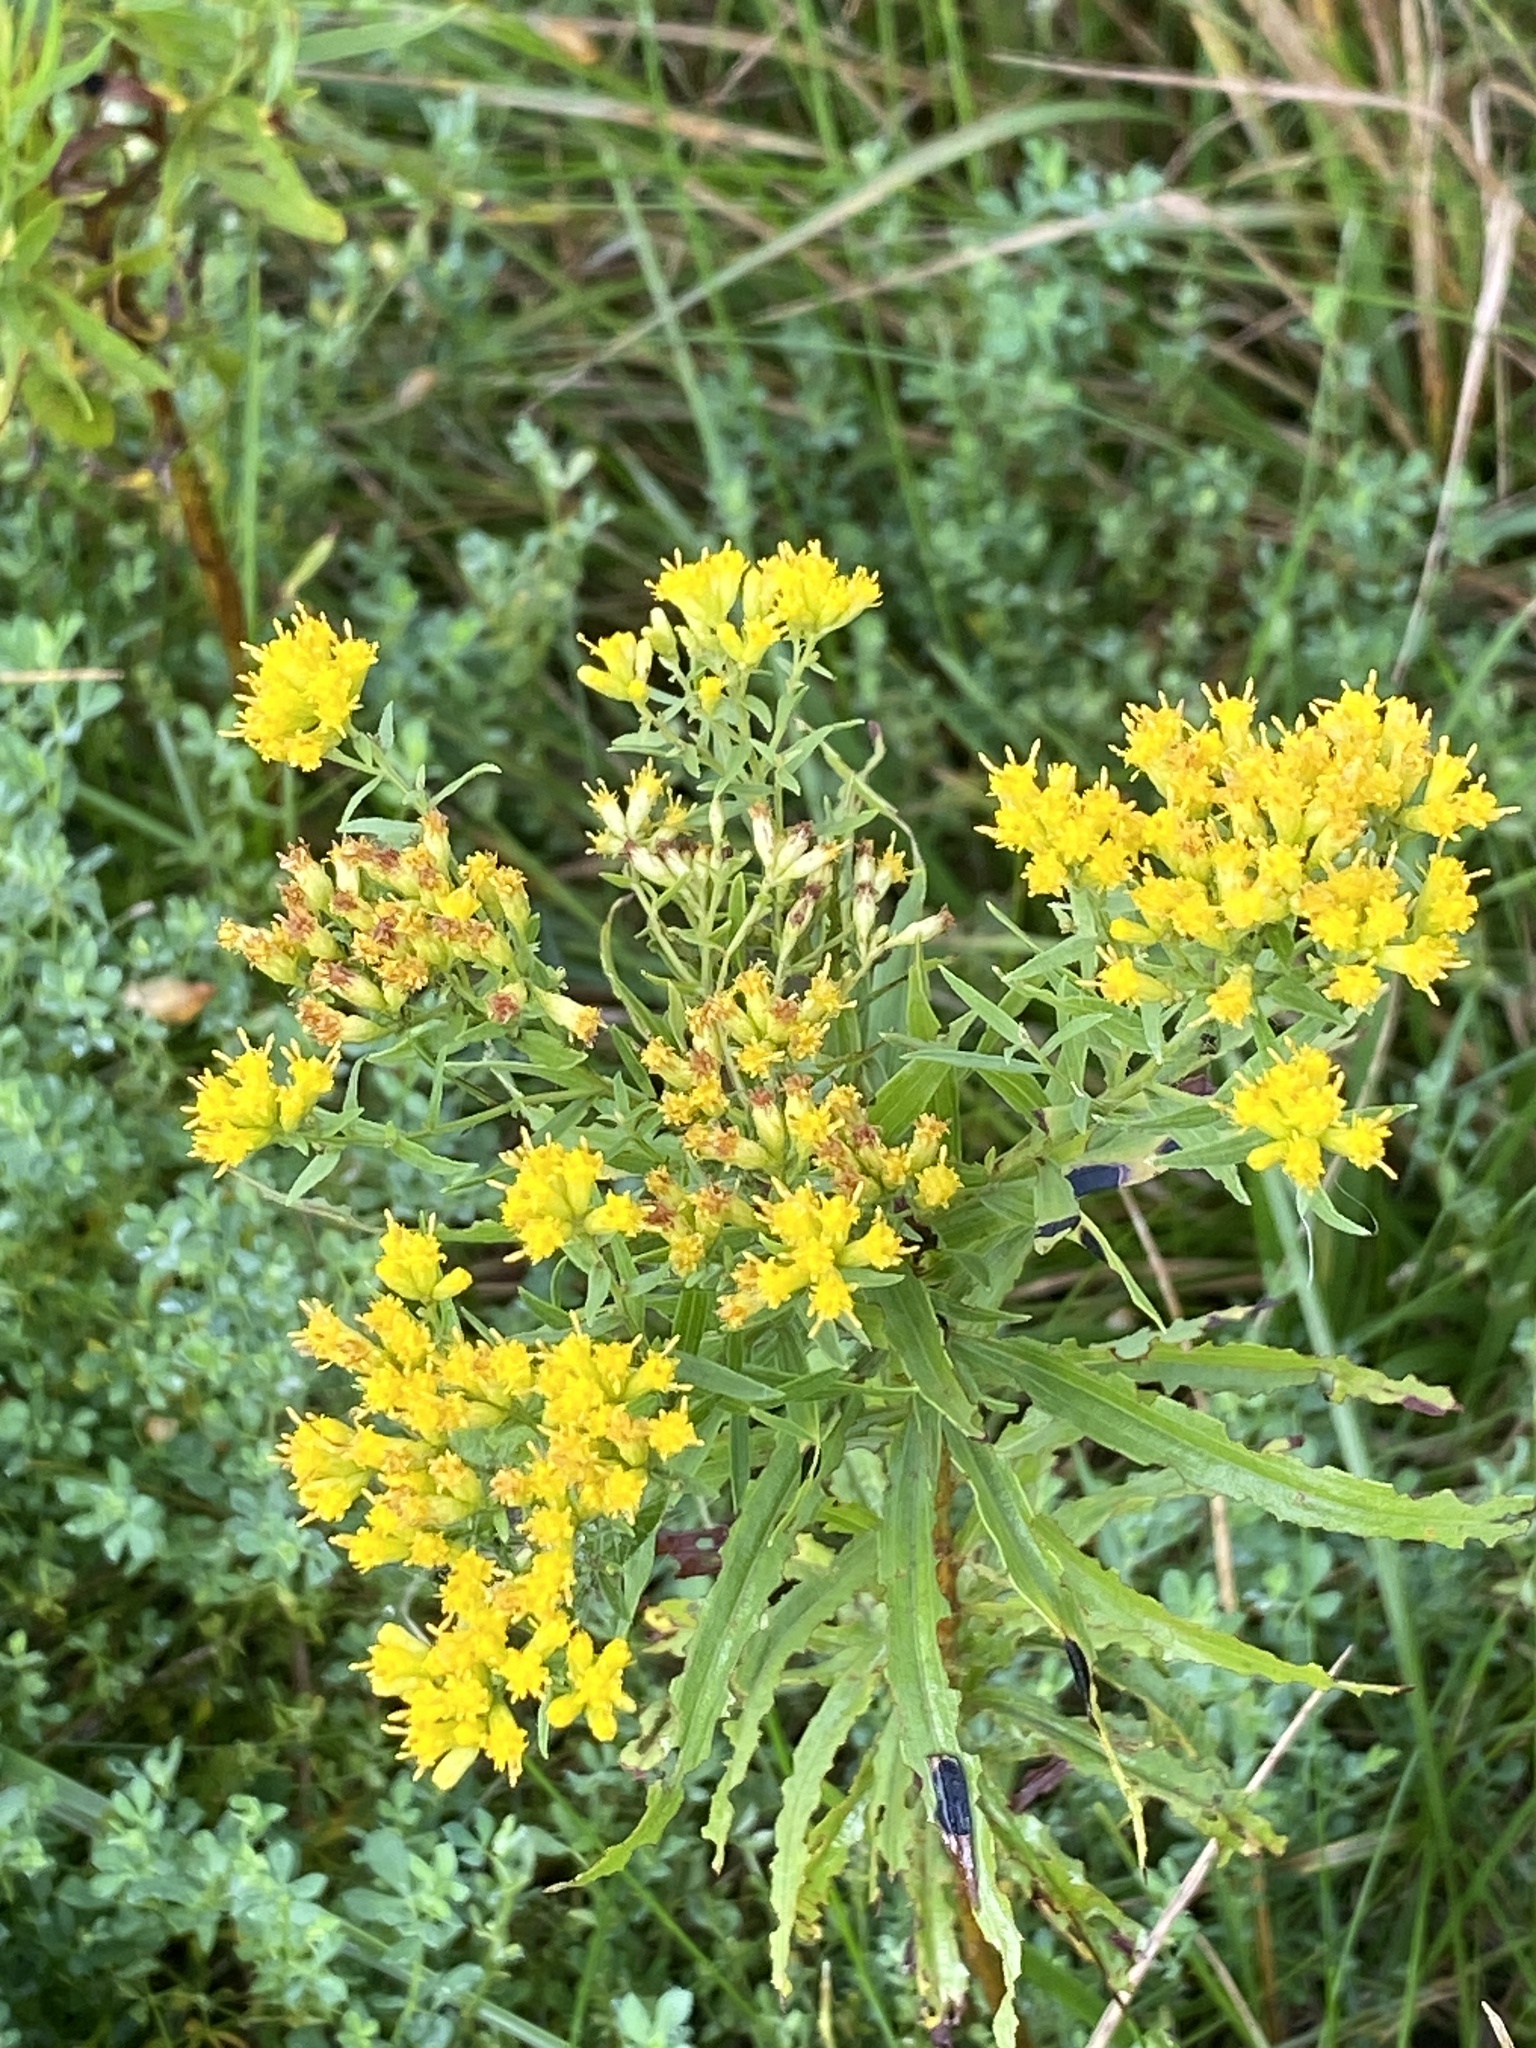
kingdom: Plantae
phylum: Tracheophyta
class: Magnoliopsida
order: Asterales
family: Asteraceae
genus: Euthamia
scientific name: Euthamia graminifolia
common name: Common goldentop
